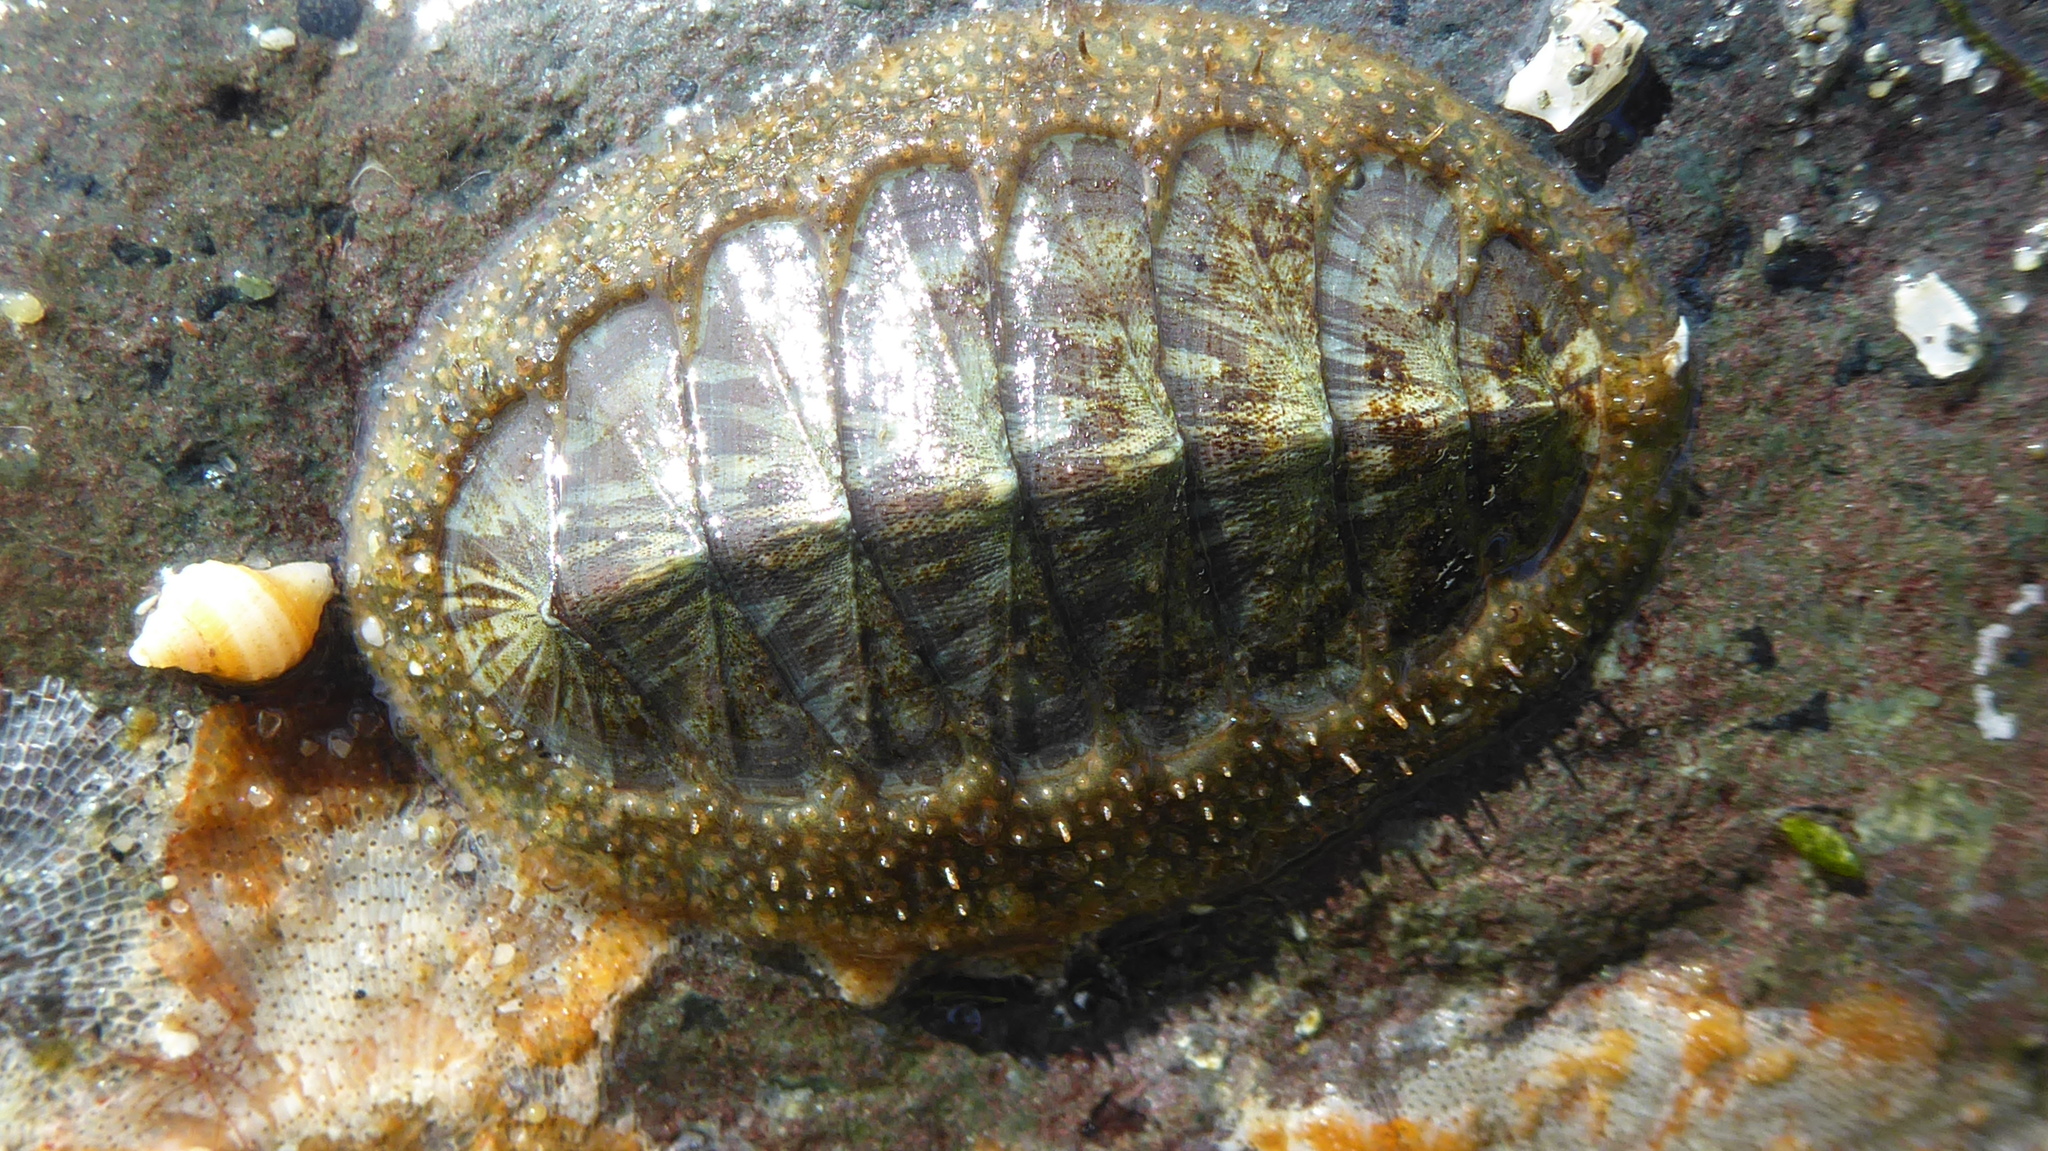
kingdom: Animalia
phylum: Mollusca
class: Polyplacophora
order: Chitonida
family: Mopaliidae
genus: Mopalia
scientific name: Mopalia lignosa
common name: Woody chiton
